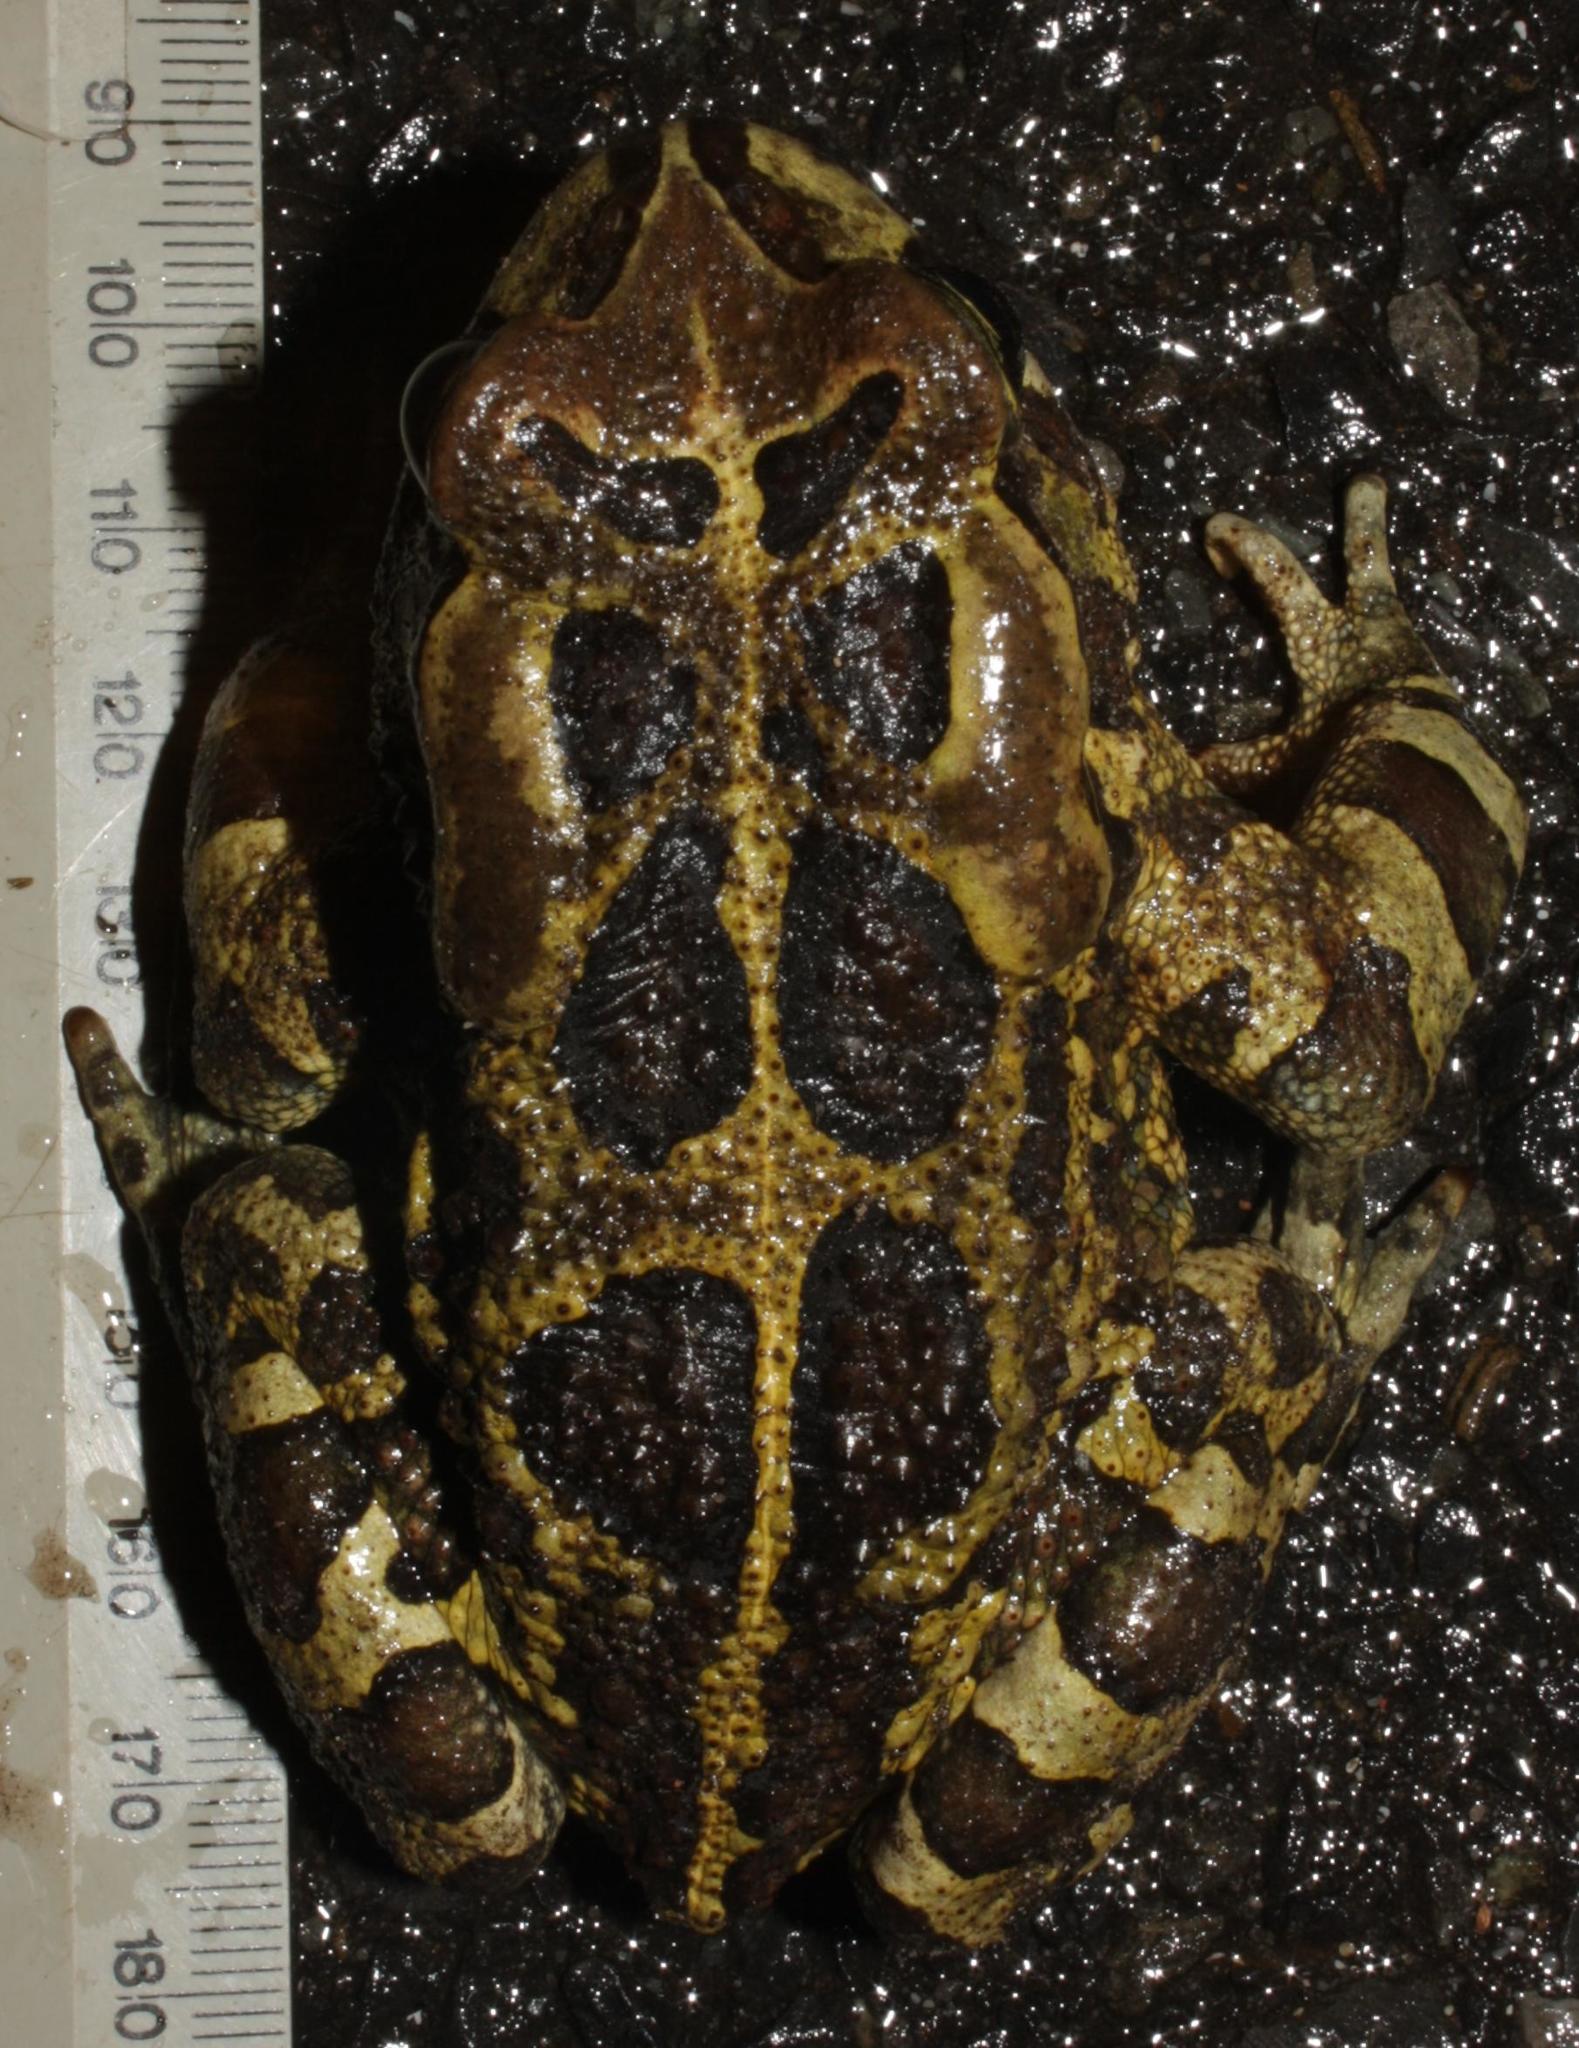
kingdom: Animalia
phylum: Chordata
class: Amphibia
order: Anura
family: Bufonidae
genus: Sclerophrys
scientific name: Sclerophrys pantherina
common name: Panther toad
